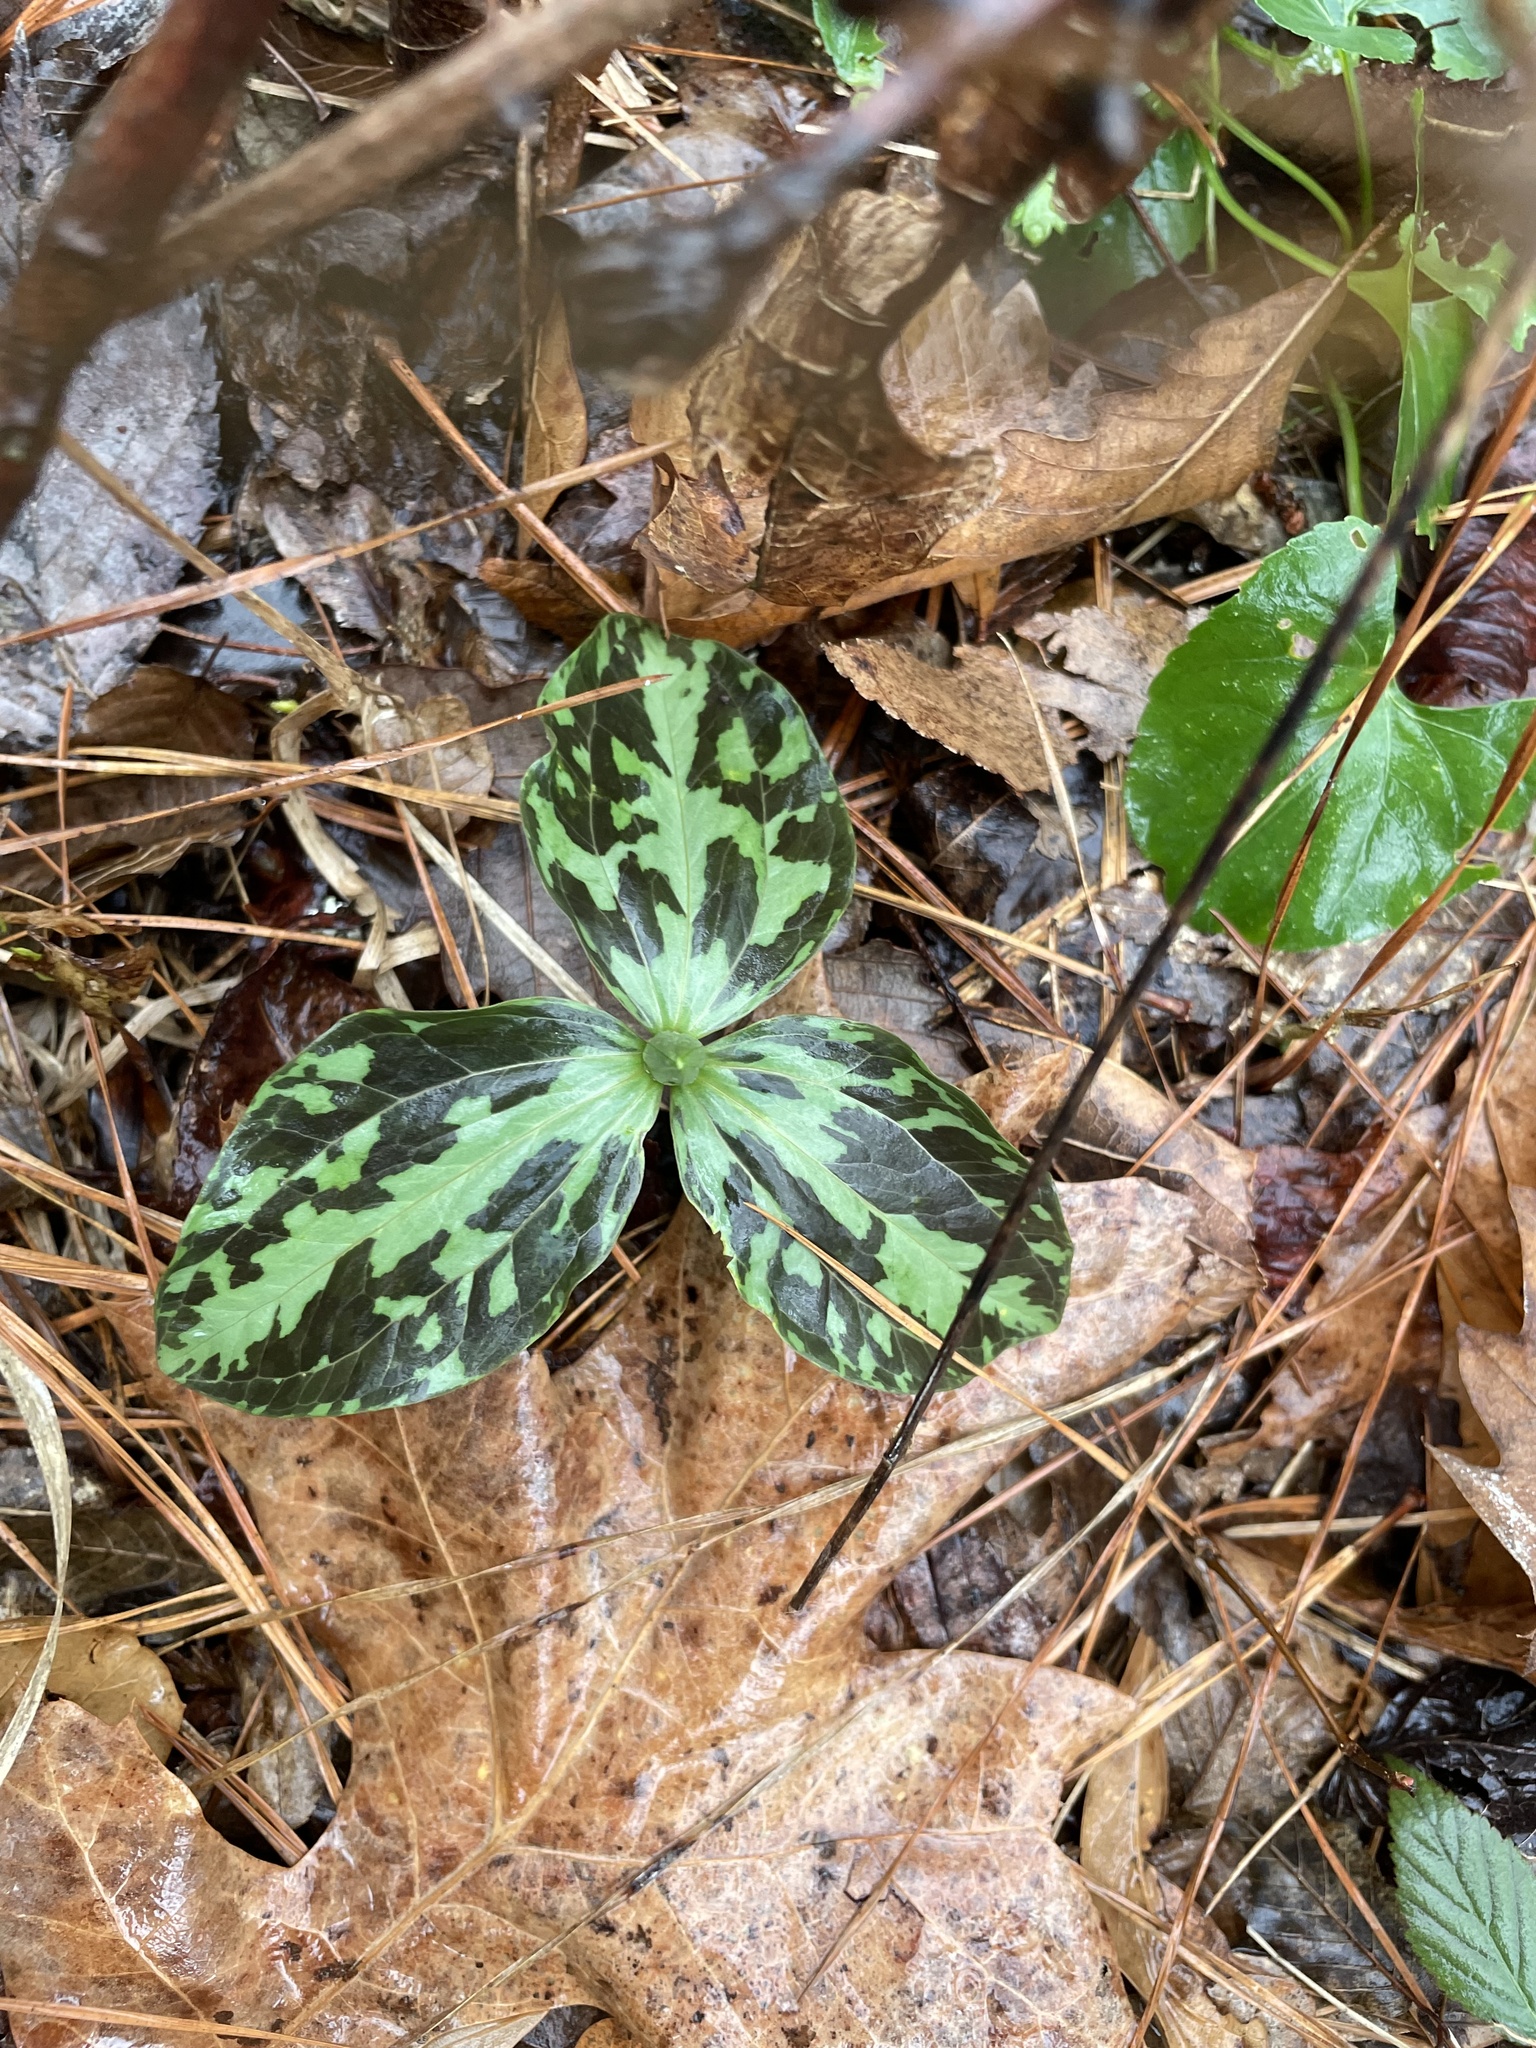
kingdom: Plantae
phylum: Tracheophyta
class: Liliopsida
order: Liliales
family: Melanthiaceae
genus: Trillium
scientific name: Trillium foetidissimum
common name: Mississippi river trillium
